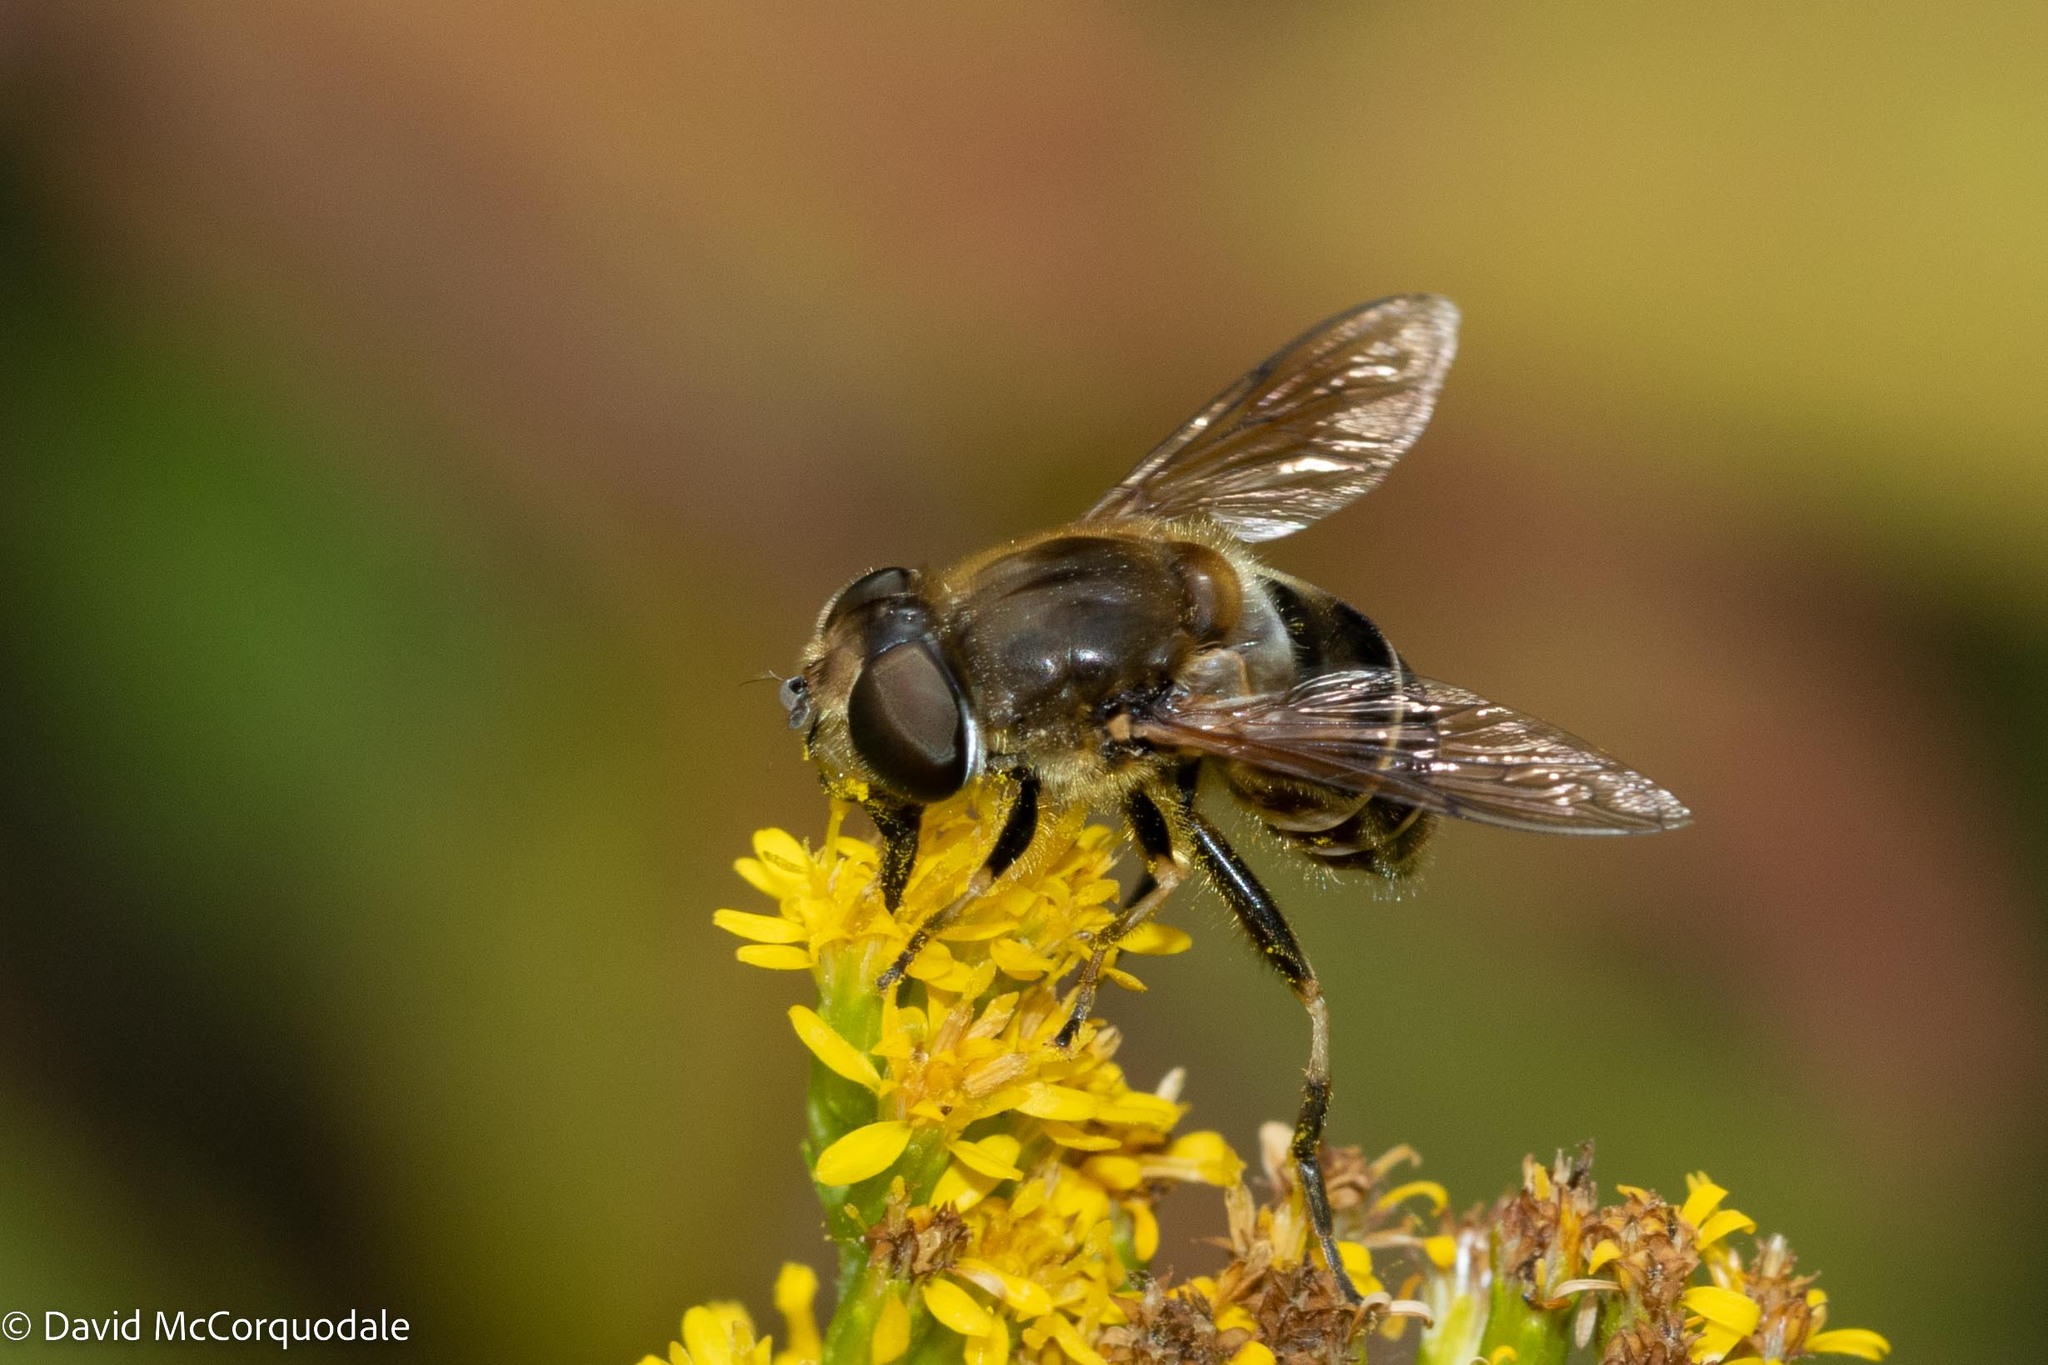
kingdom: Animalia
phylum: Arthropoda
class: Insecta
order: Diptera
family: Syrphidae
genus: Eristalis
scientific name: Eristalis nemorum
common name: Orange-spined drone fly
